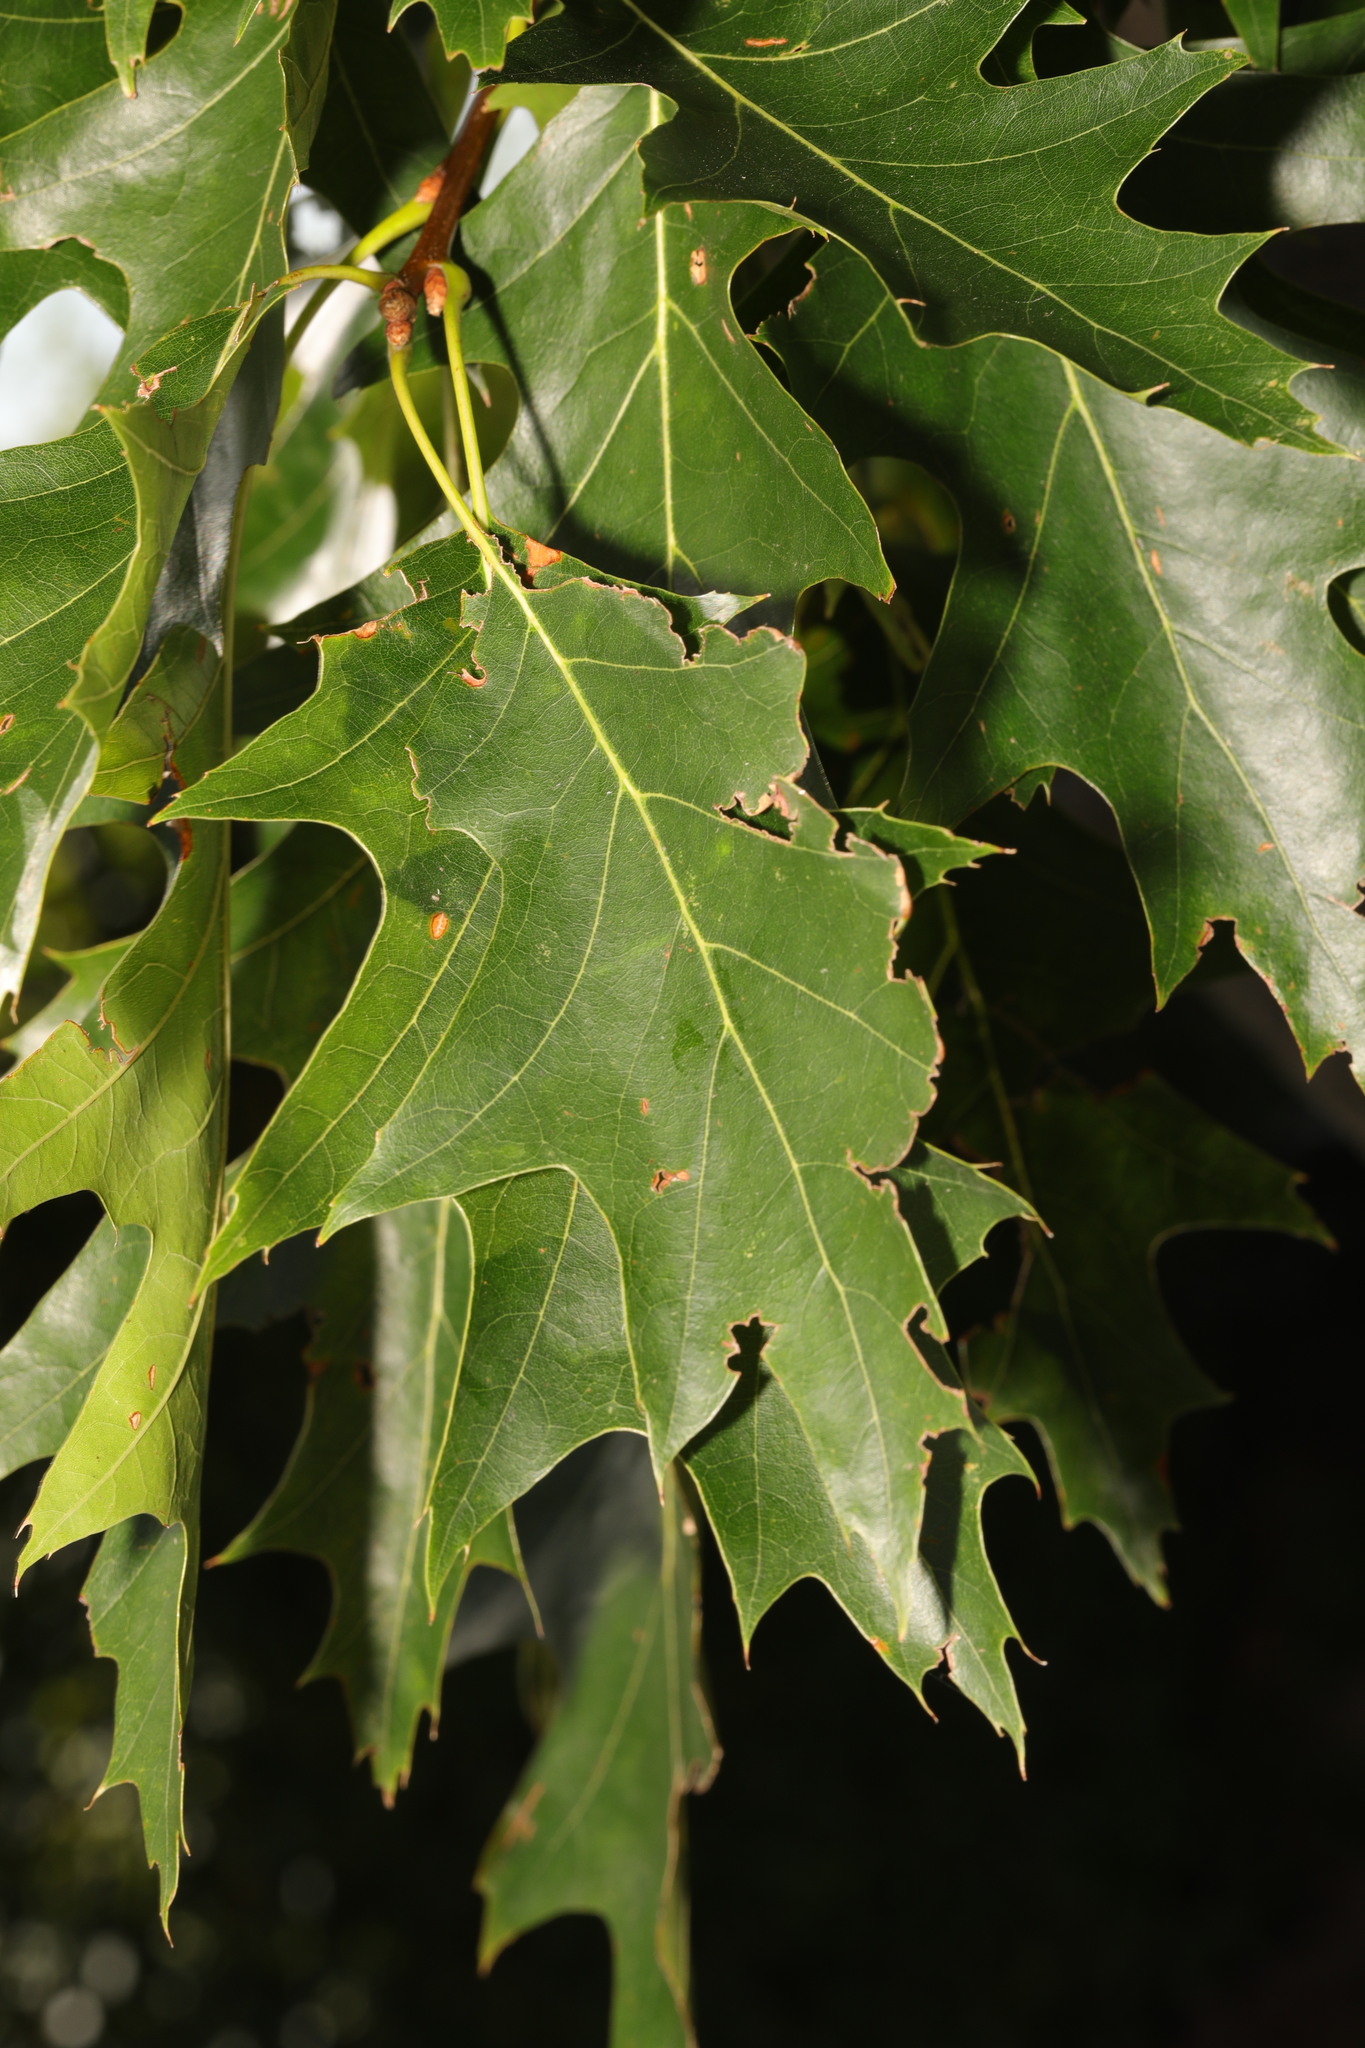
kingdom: Plantae
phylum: Tracheophyta
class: Magnoliopsida
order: Fagales
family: Fagaceae
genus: Quercus
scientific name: Quercus rubra
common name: Red oak
